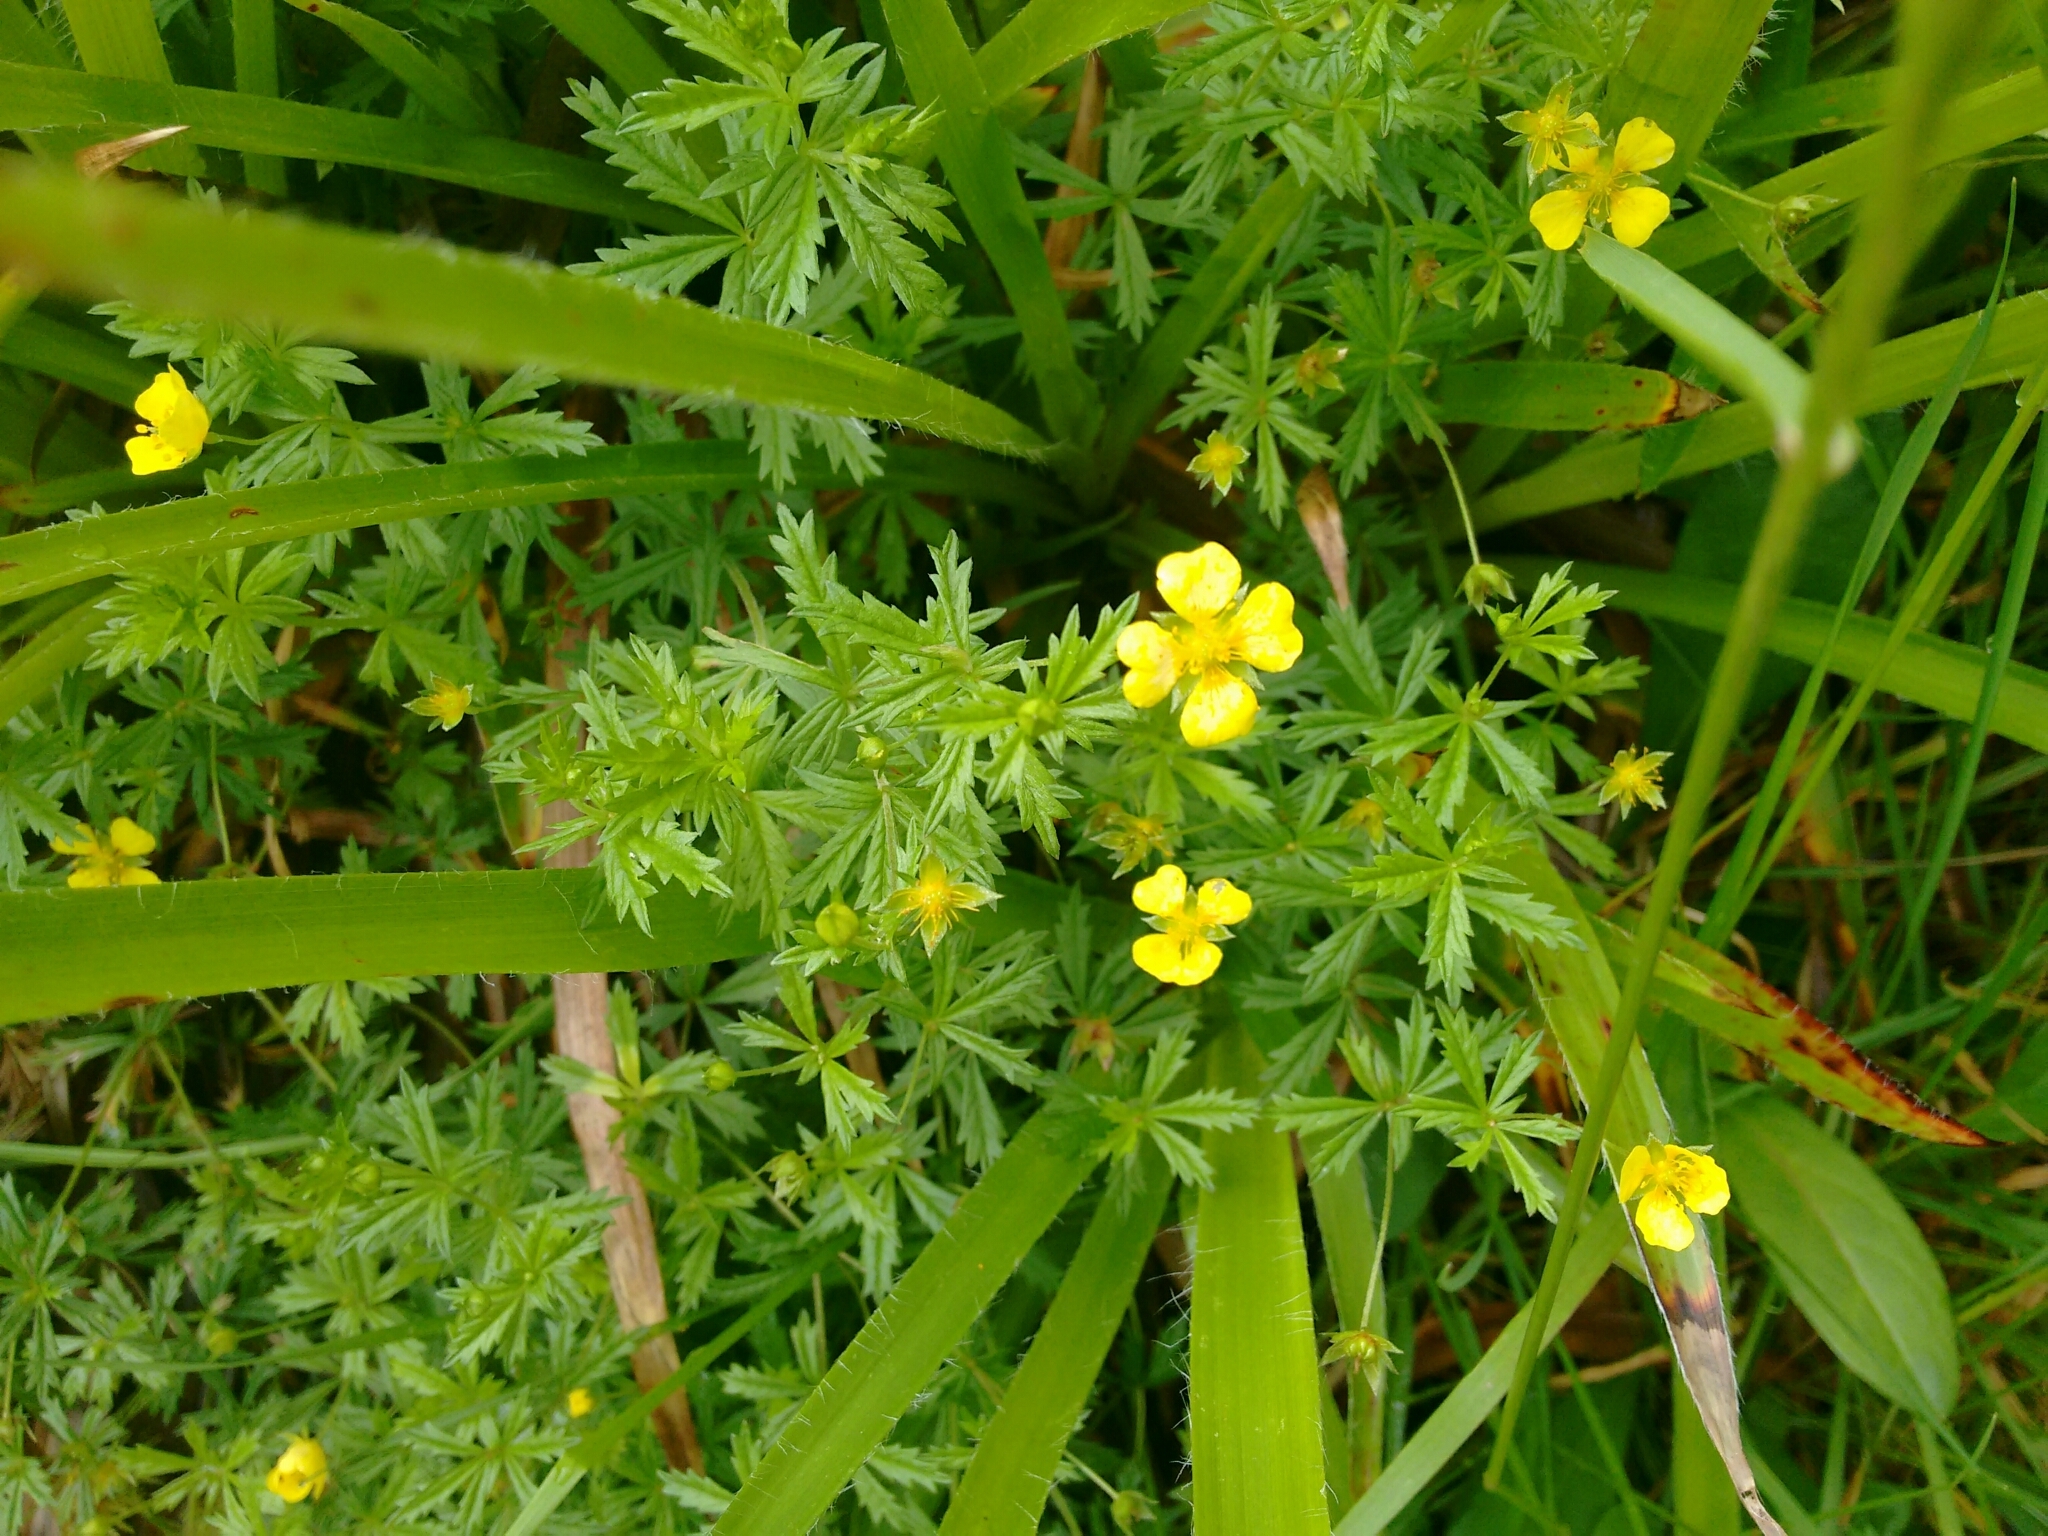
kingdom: Plantae
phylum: Tracheophyta
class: Magnoliopsida
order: Rosales
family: Rosaceae
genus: Potentilla
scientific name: Potentilla erecta
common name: Tormentil
